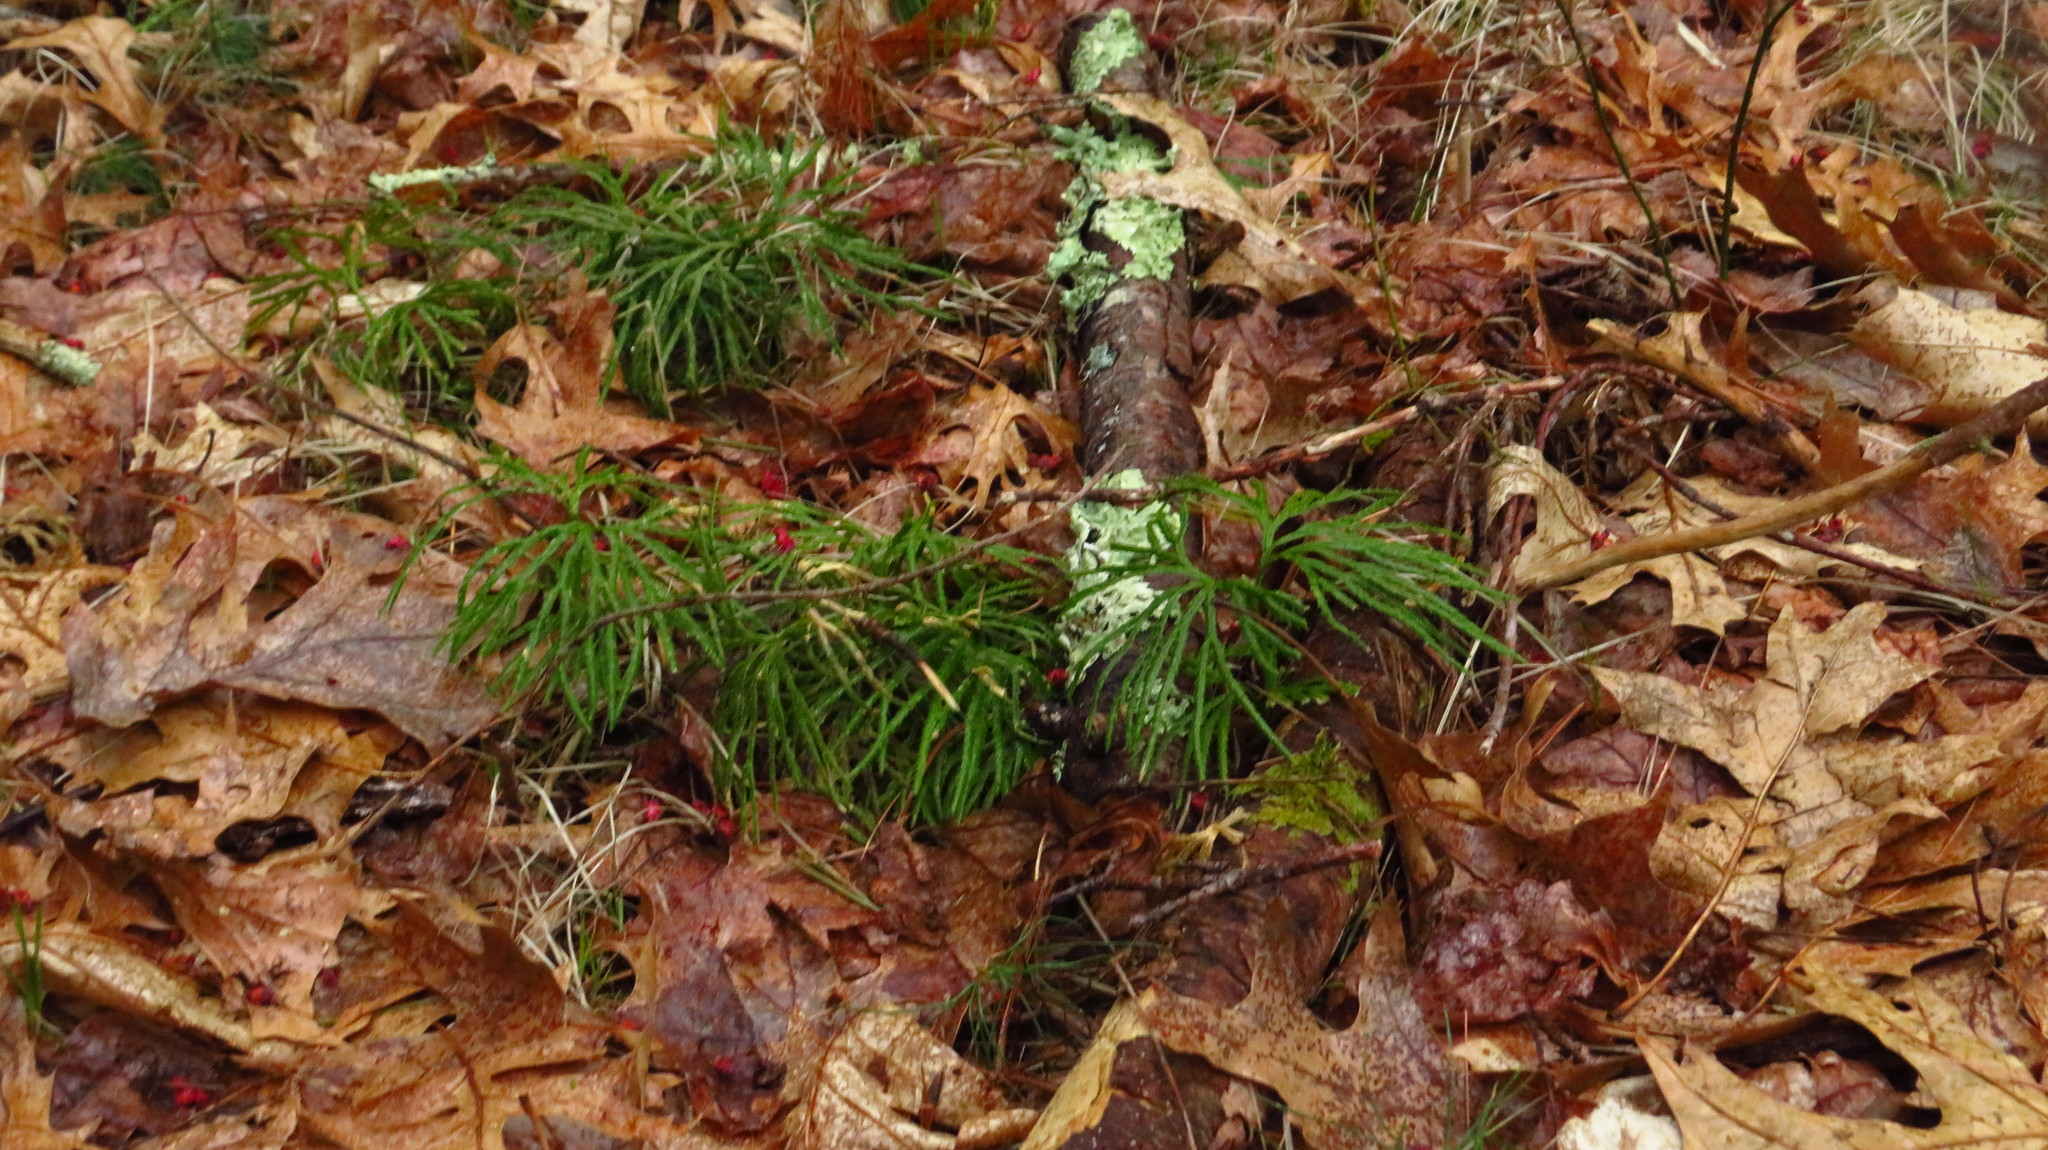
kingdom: Plantae
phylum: Tracheophyta
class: Lycopodiopsida
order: Lycopodiales
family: Lycopodiaceae
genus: Diphasiastrum
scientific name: Diphasiastrum digitatum
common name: Southern running-pine
